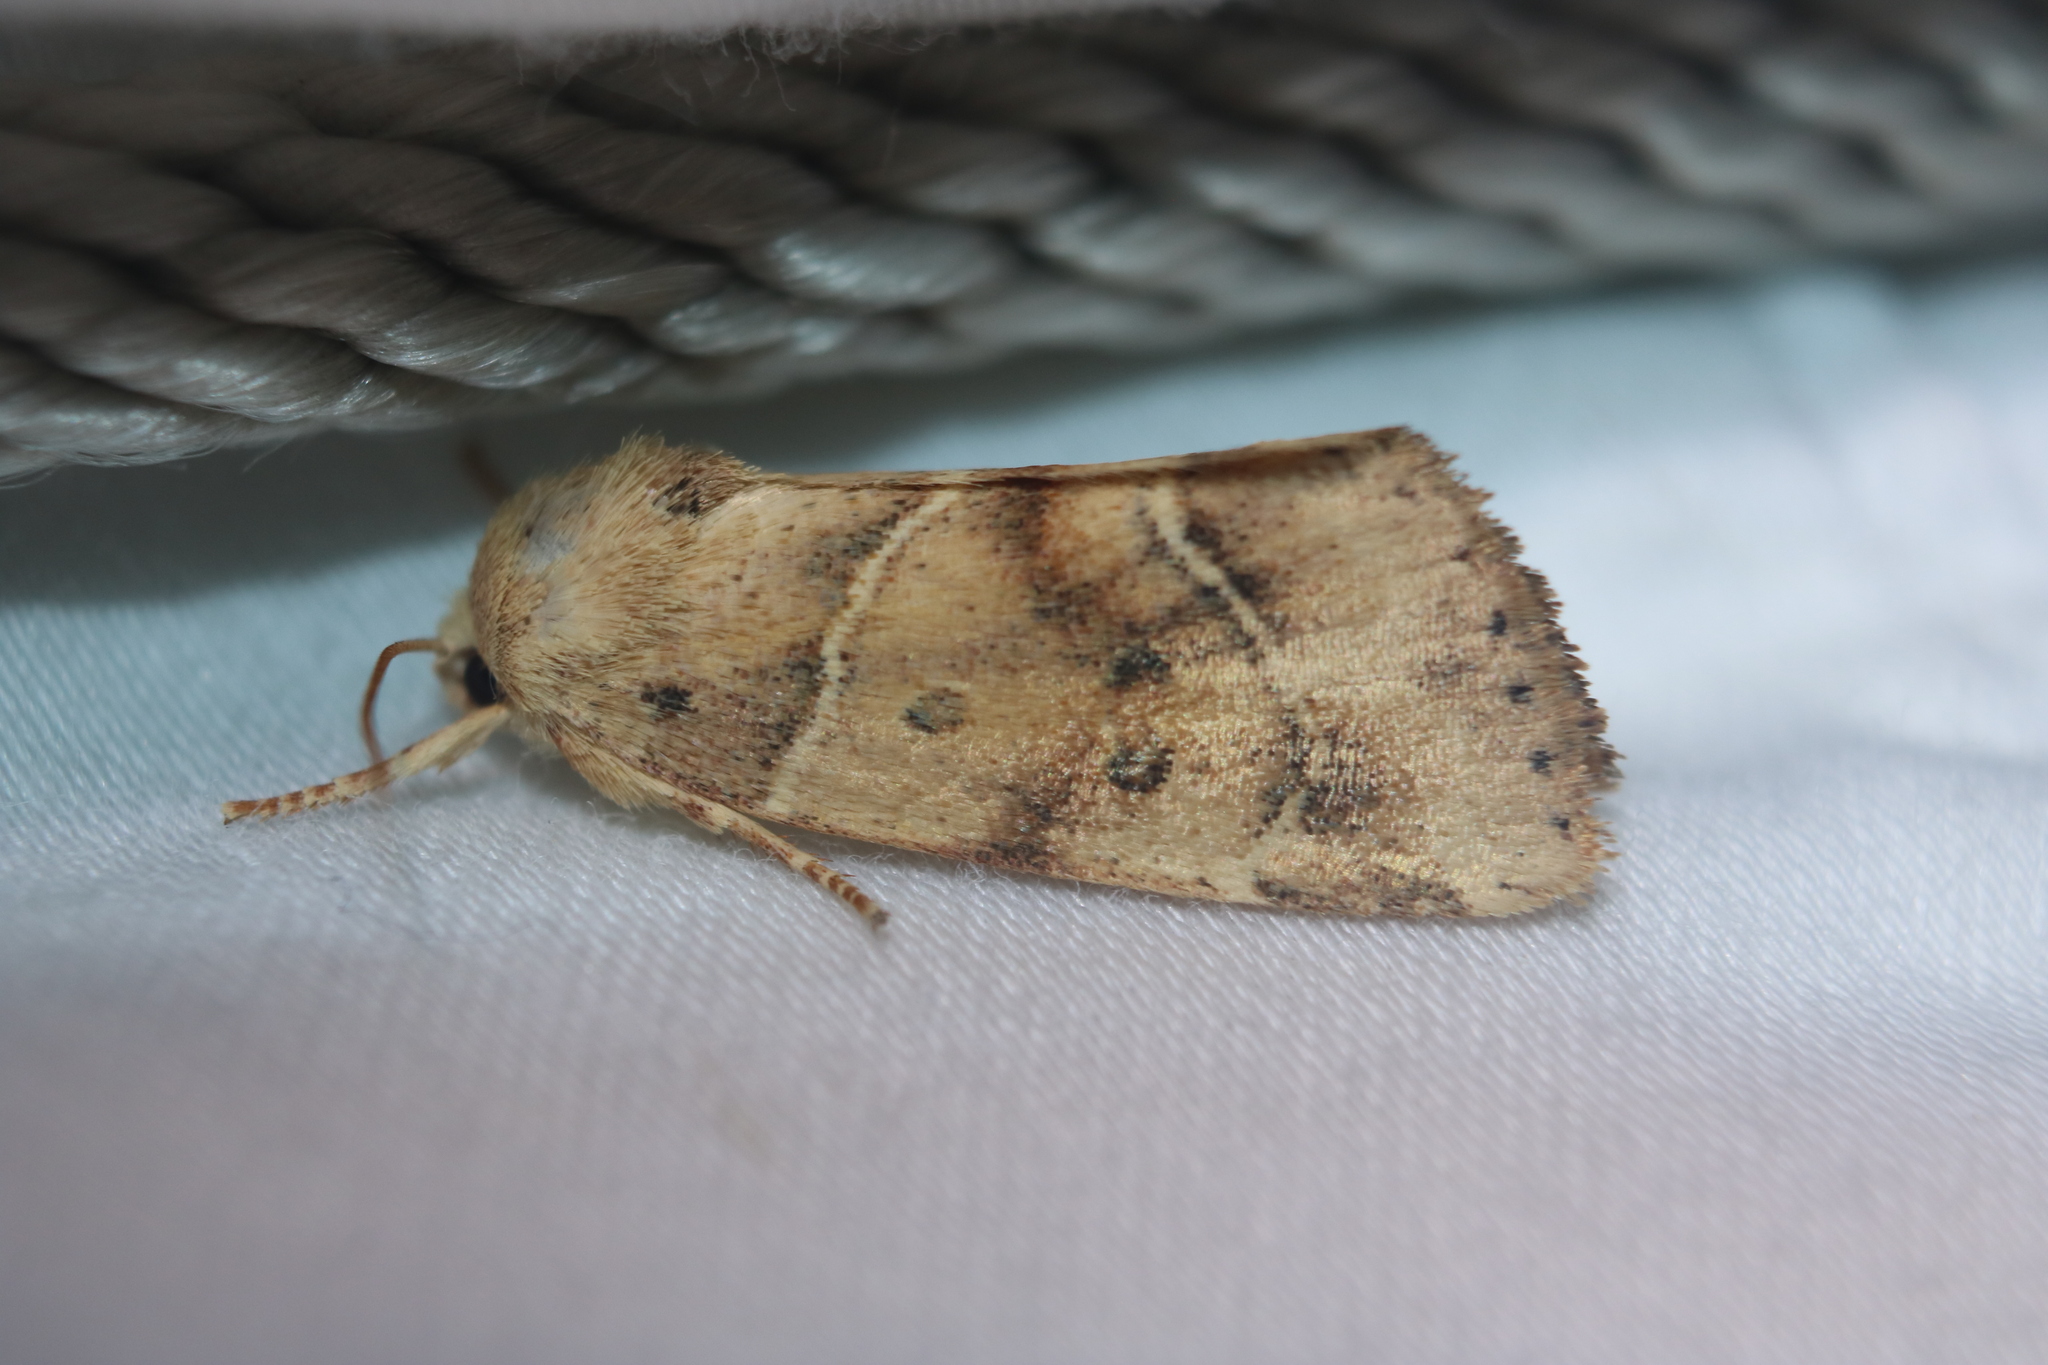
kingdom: Animalia
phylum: Arthropoda
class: Insecta
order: Lepidoptera
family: Noctuidae
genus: Cosmia
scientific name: Cosmia calami
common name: American dun-bar moth
